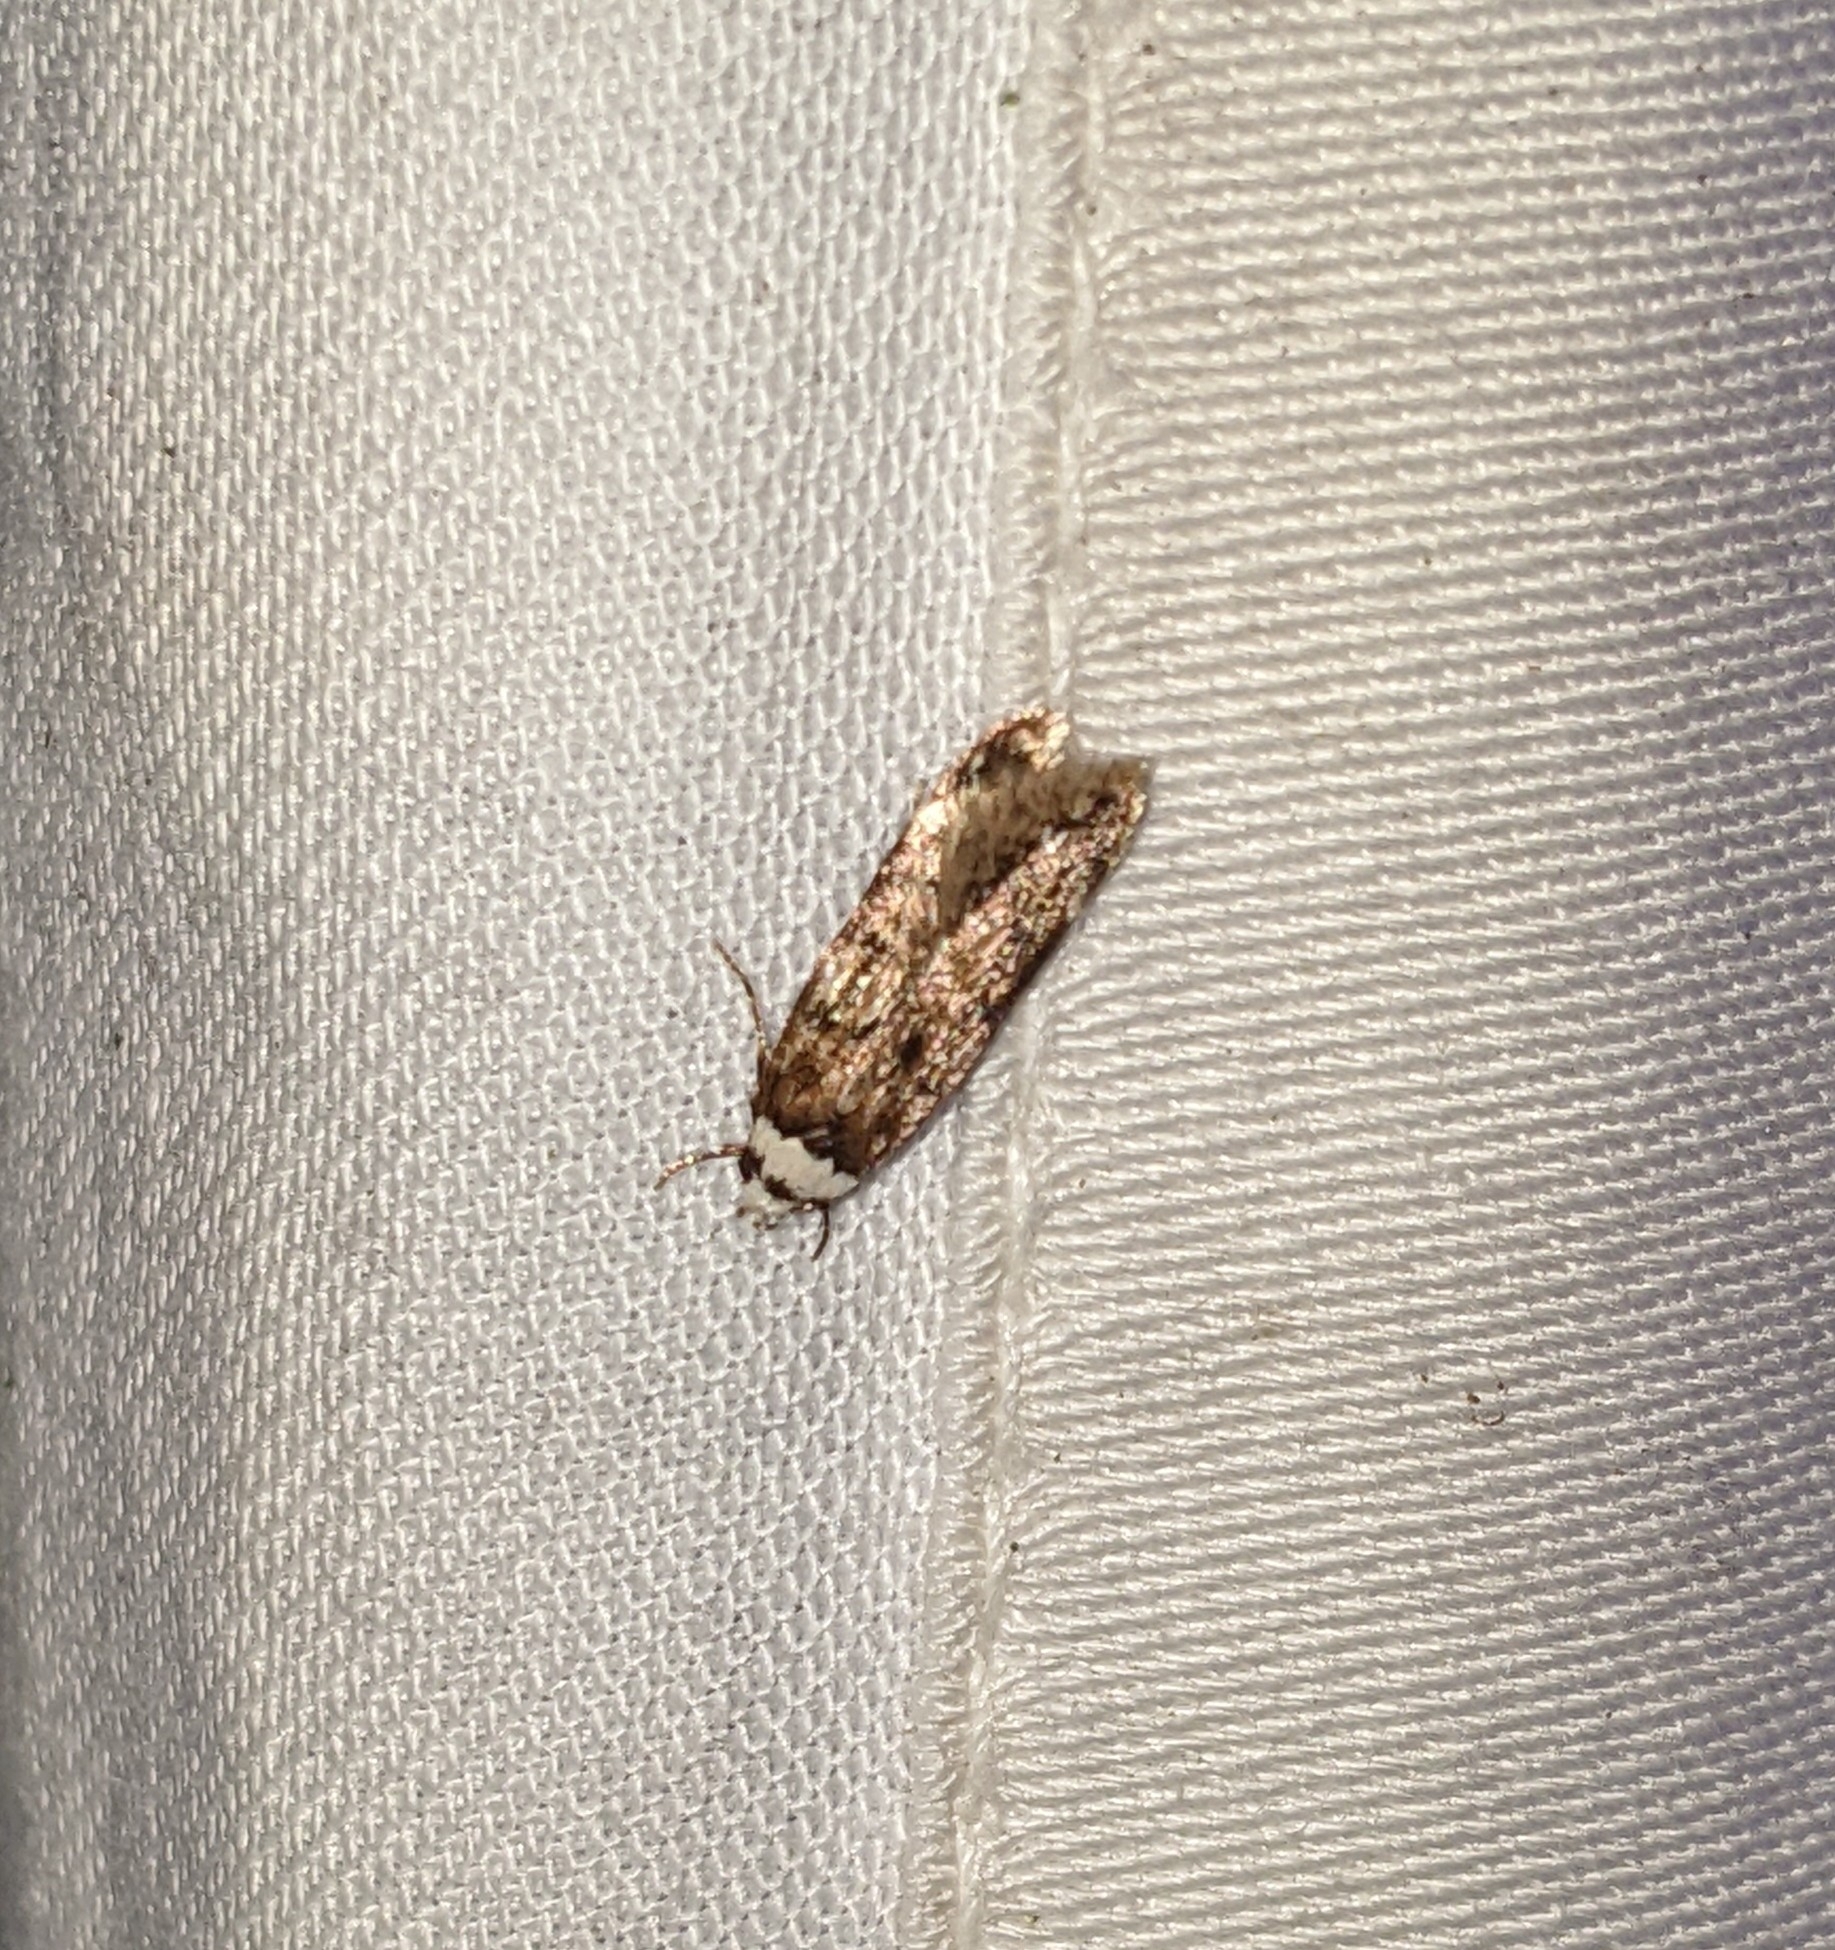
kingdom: Animalia
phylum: Arthropoda
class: Insecta
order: Lepidoptera
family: Oecophoridae
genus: Endrosis
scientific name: Endrosis sarcitrella
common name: White-shouldered house moth
